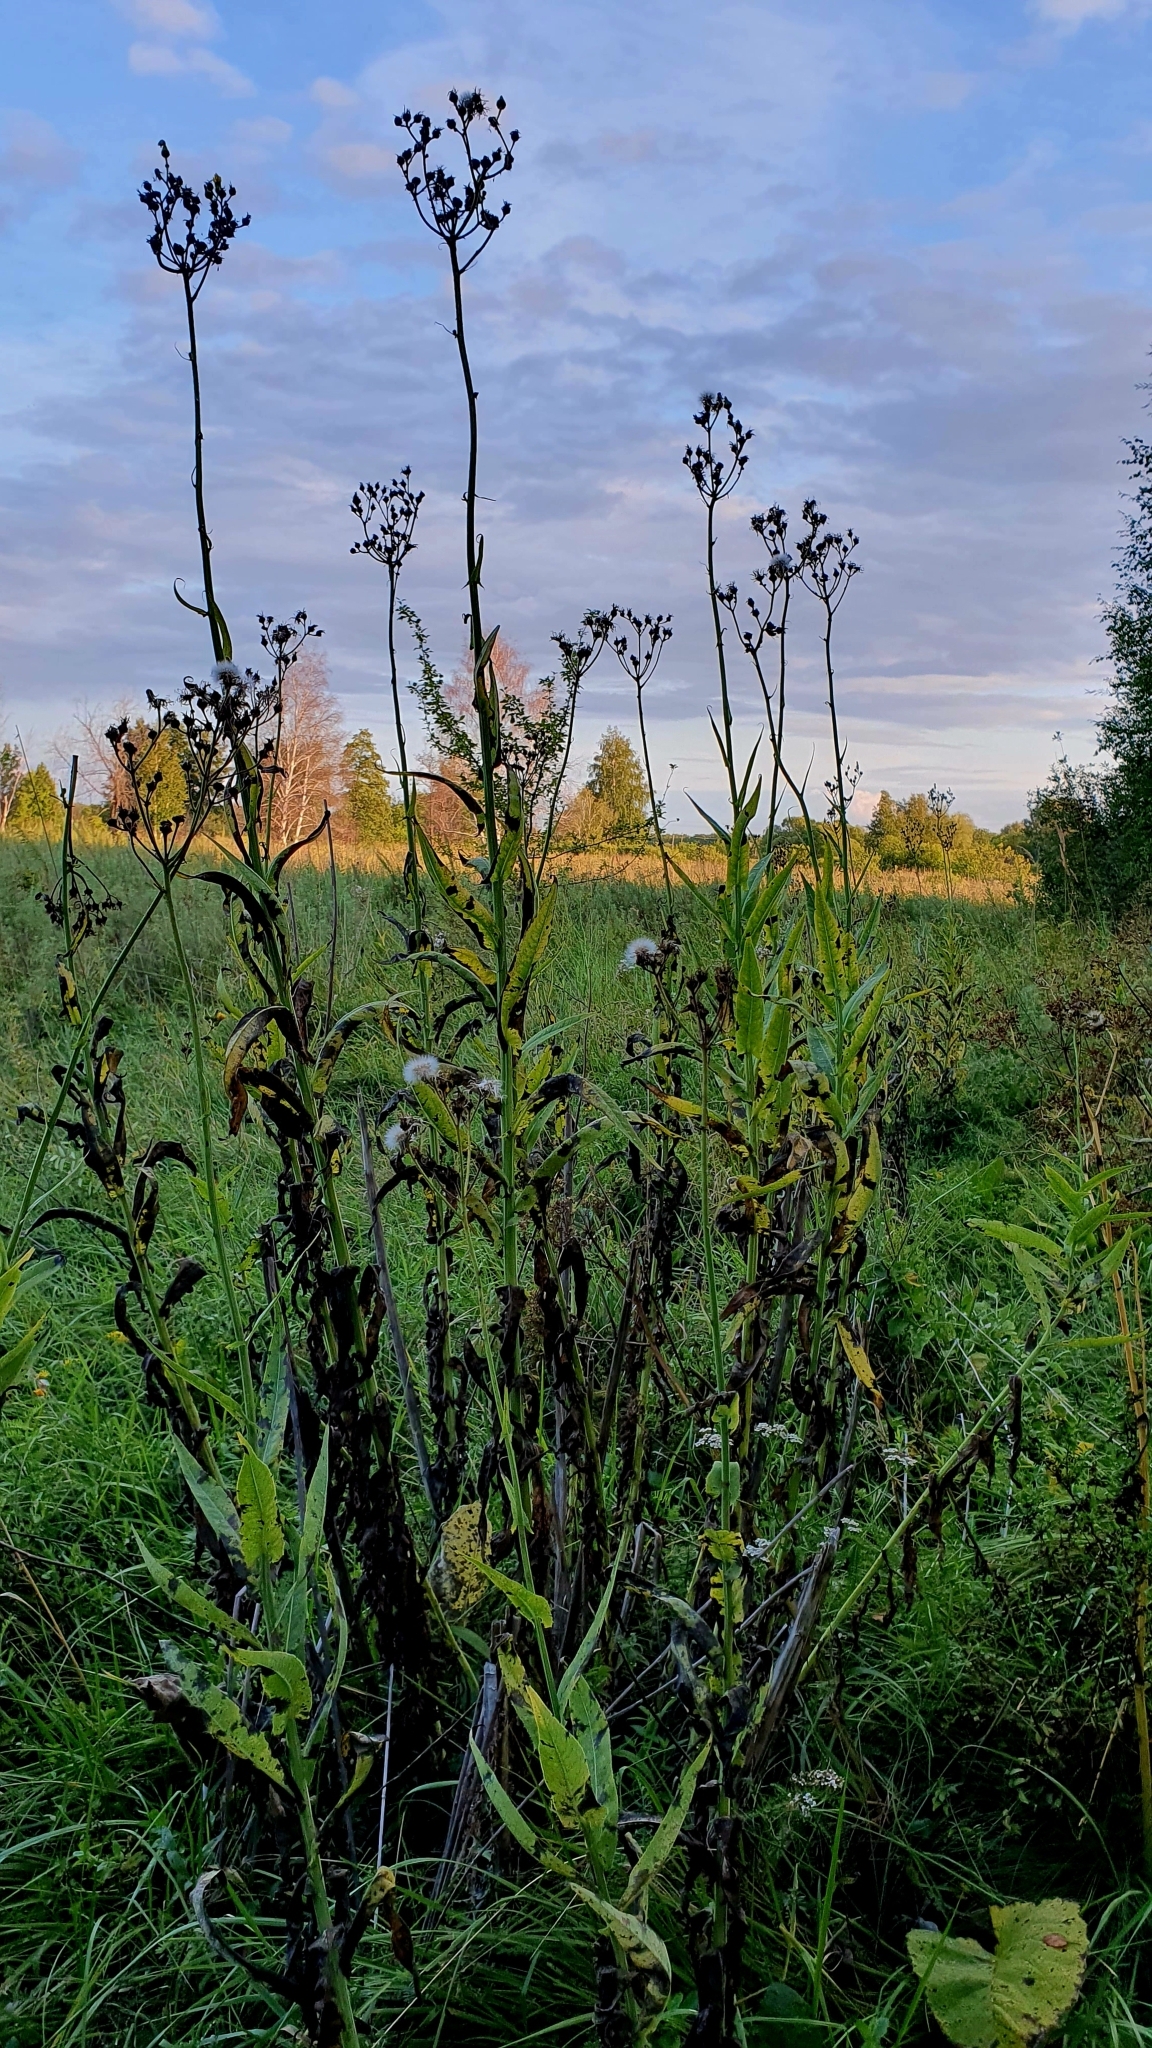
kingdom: Plantae
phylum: Tracheophyta
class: Magnoliopsida
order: Asterales
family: Asteraceae
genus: Sonchus
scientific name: Sonchus palustris
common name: Marsh sow-thistle
